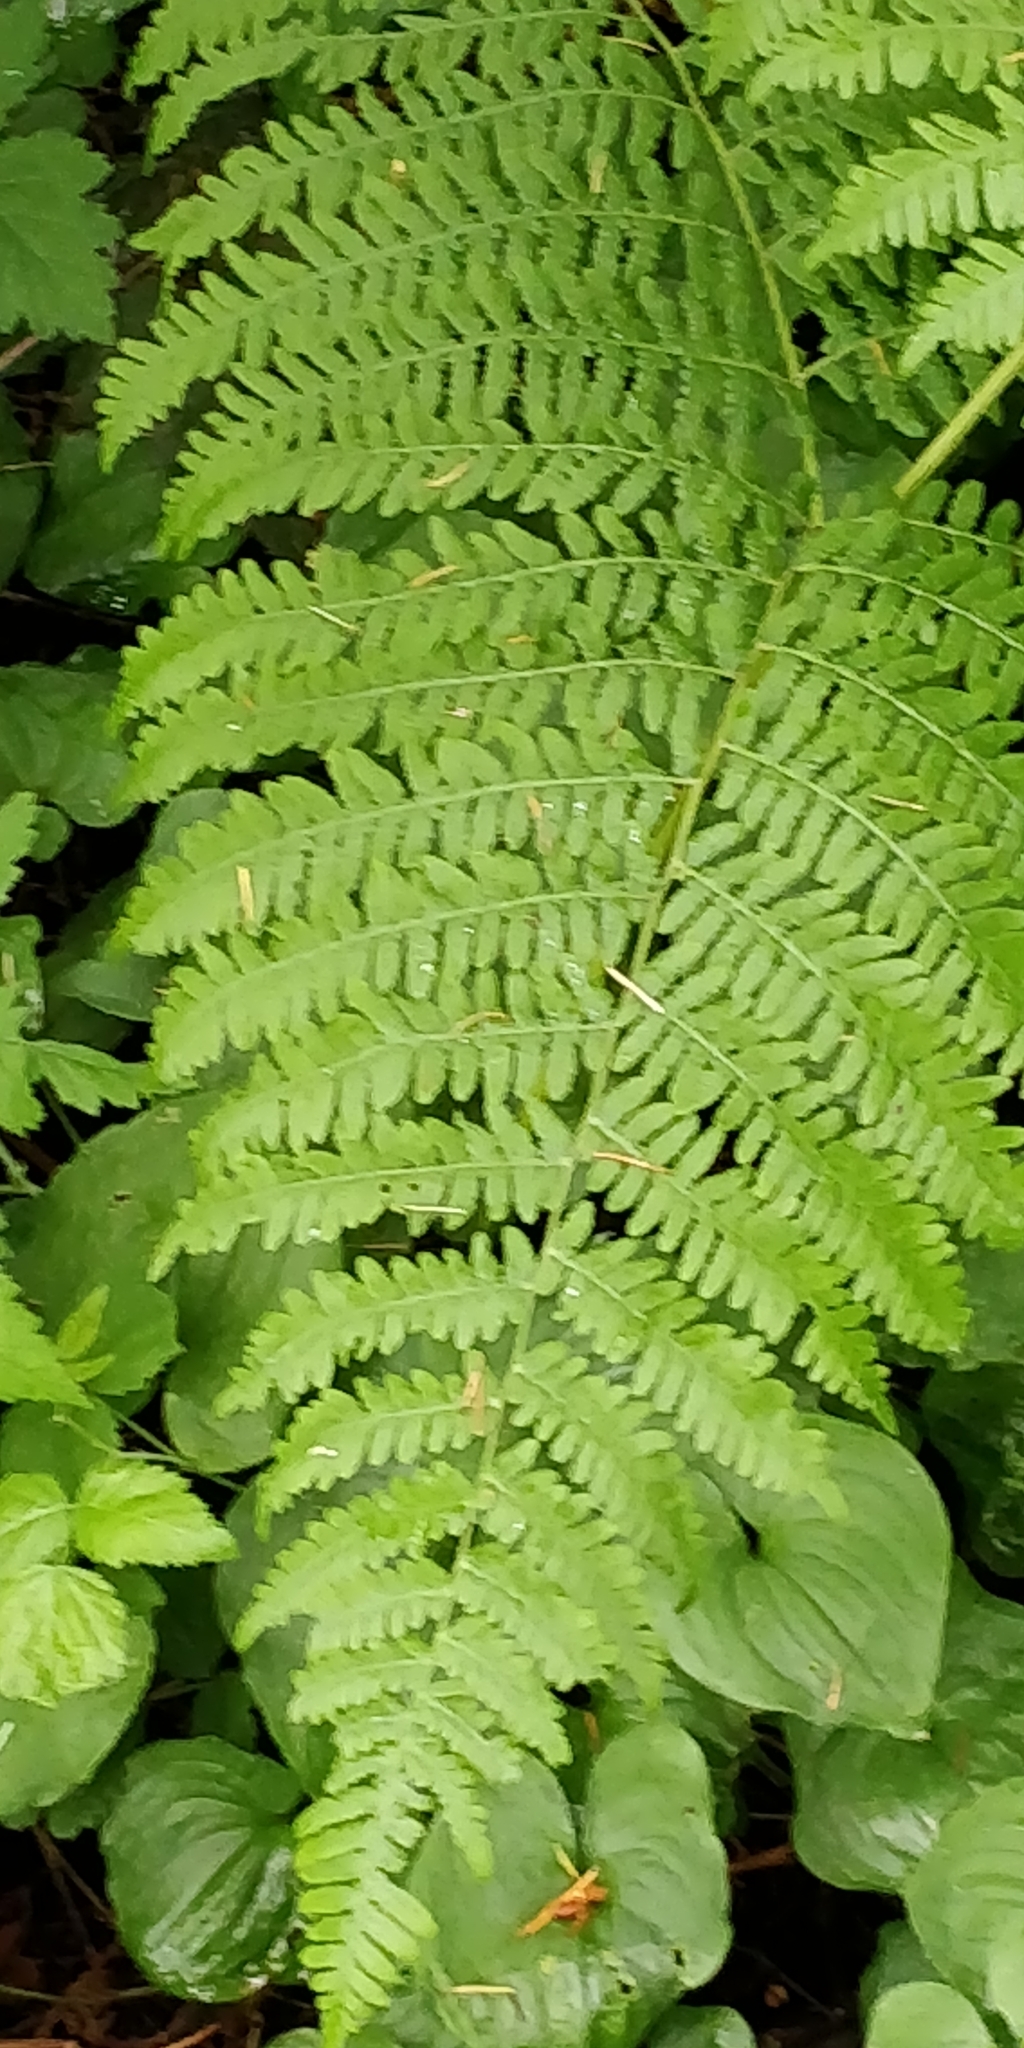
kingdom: Plantae
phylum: Tracheophyta
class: Polypodiopsida
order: Polypodiales
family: Dennstaedtiaceae
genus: Pteridium
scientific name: Pteridium aquilinum
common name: Bracken
